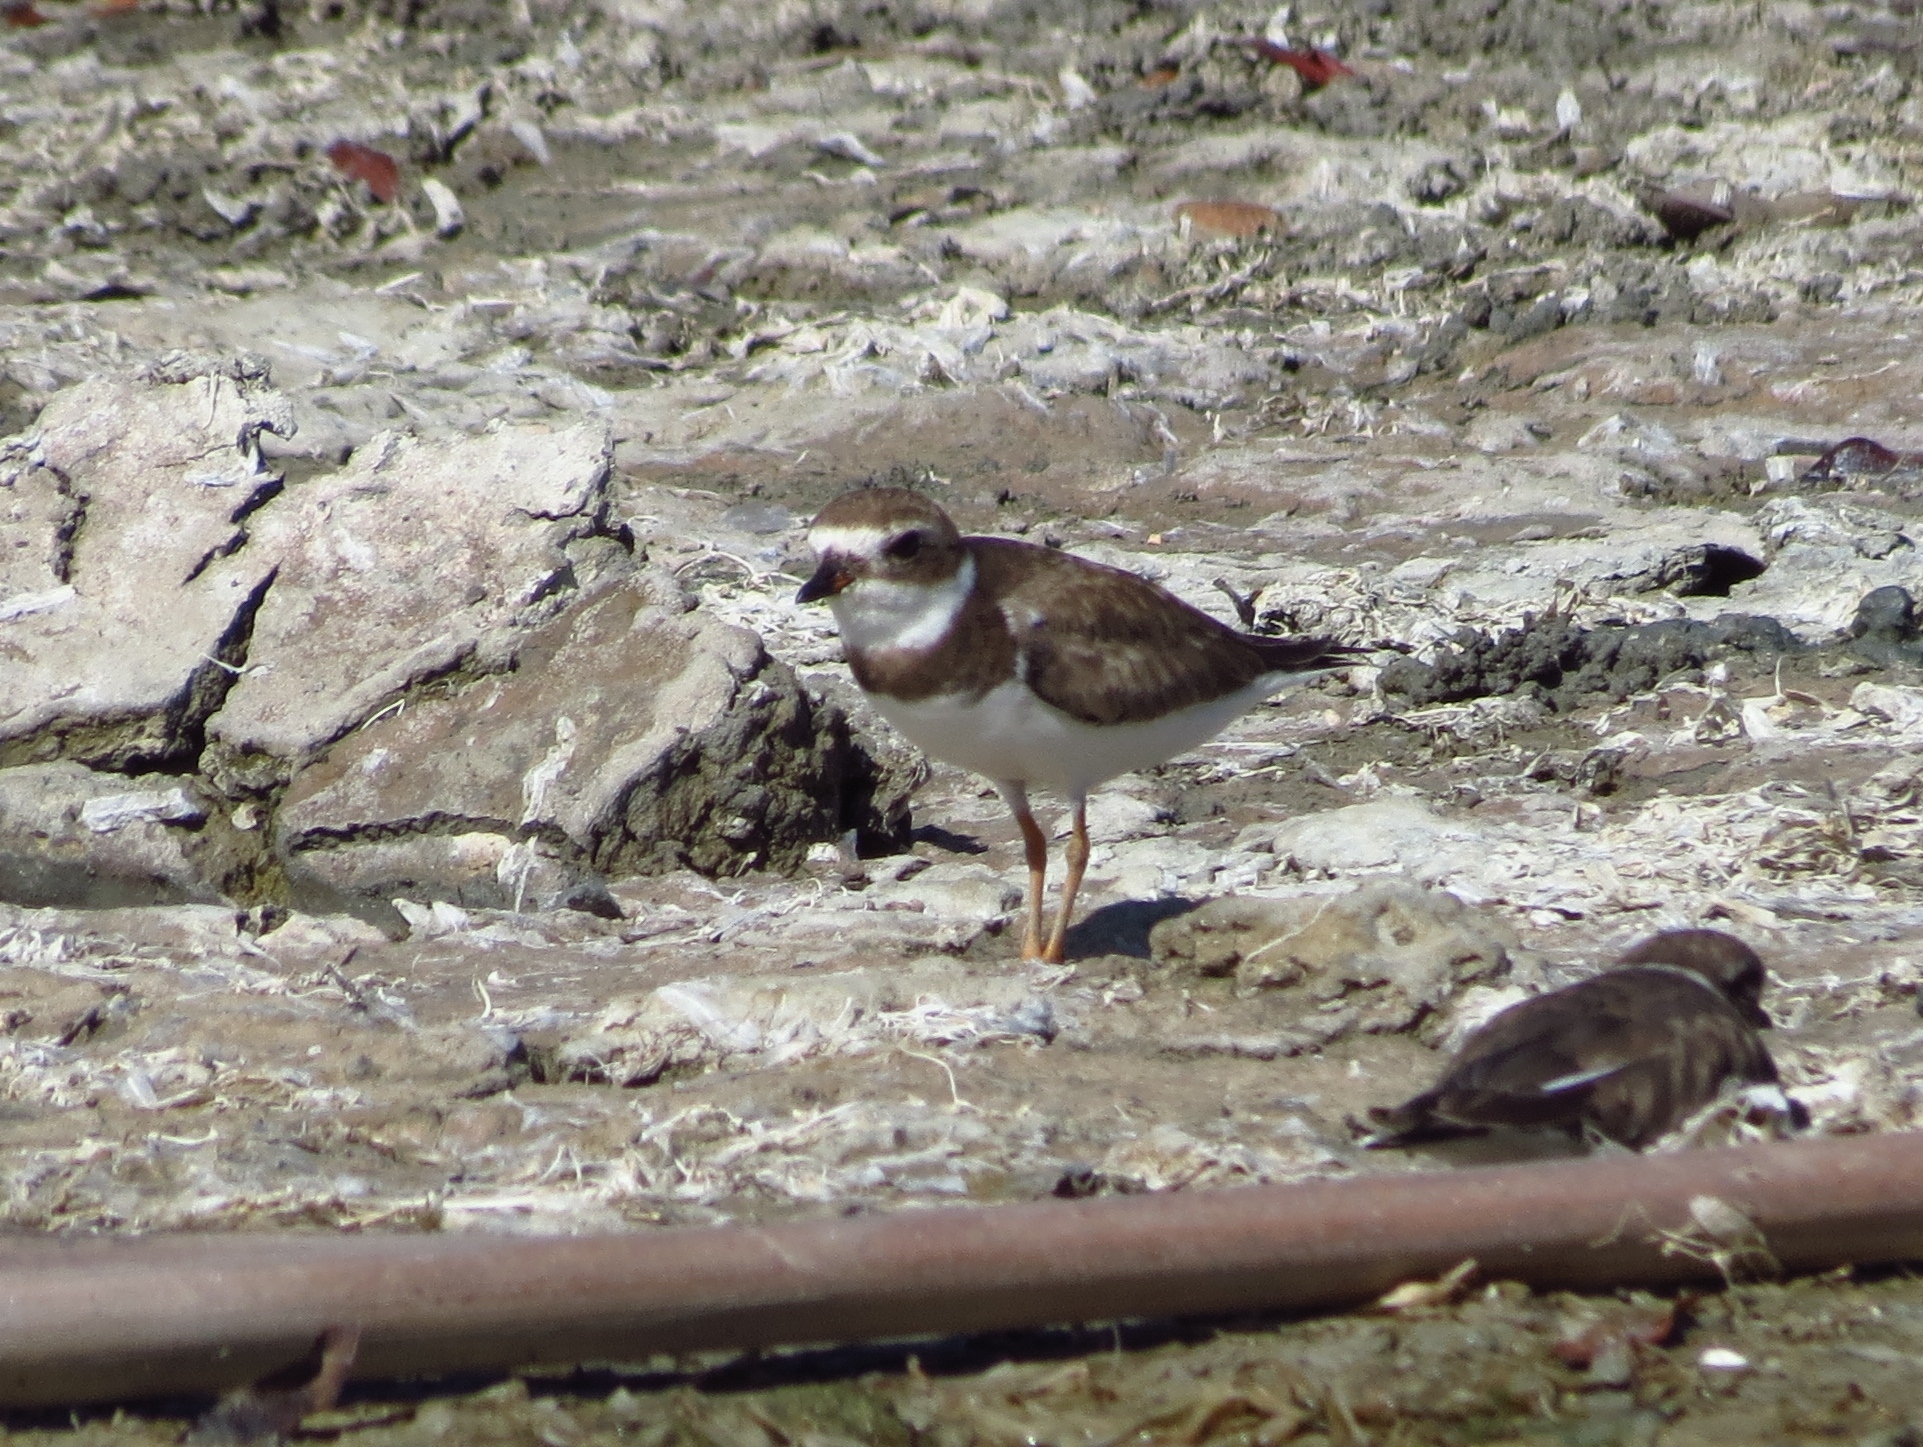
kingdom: Animalia
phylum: Chordata
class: Aves
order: Charadriiformes
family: Charadriidae
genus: Charadrius
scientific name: Charadrius semipalmatus
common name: Semipalmated plover
